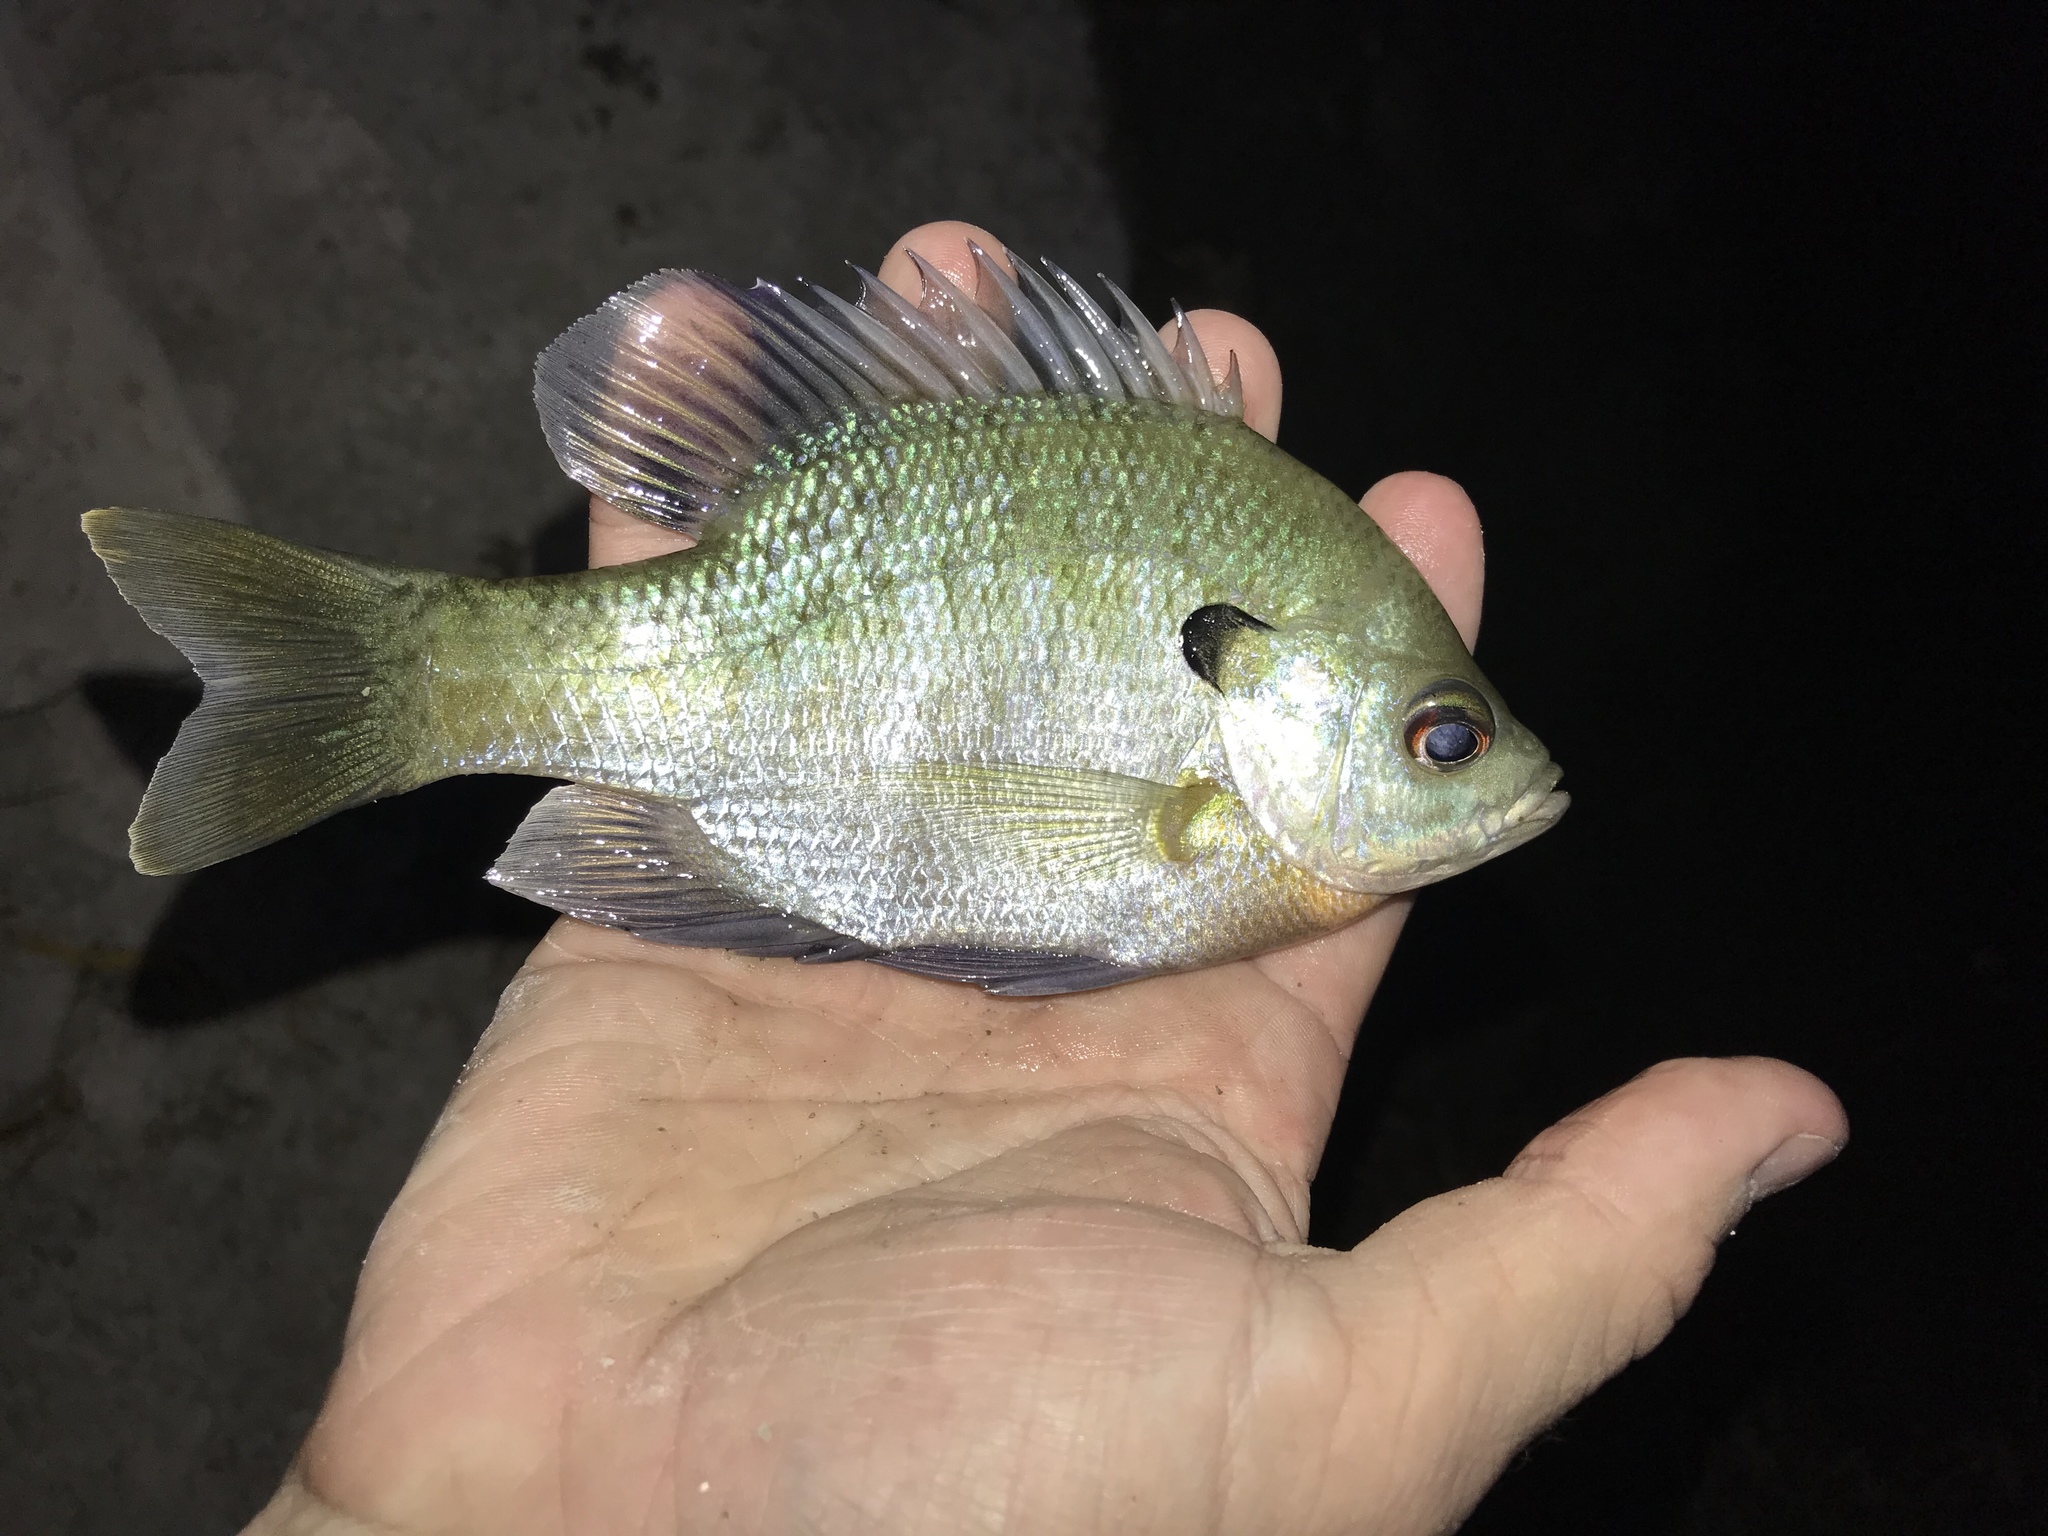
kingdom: Animalia
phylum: Chordata
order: Perciformes
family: Centrarchidae
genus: Lepomis
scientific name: Lepomis macrochirus
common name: Bluegill
